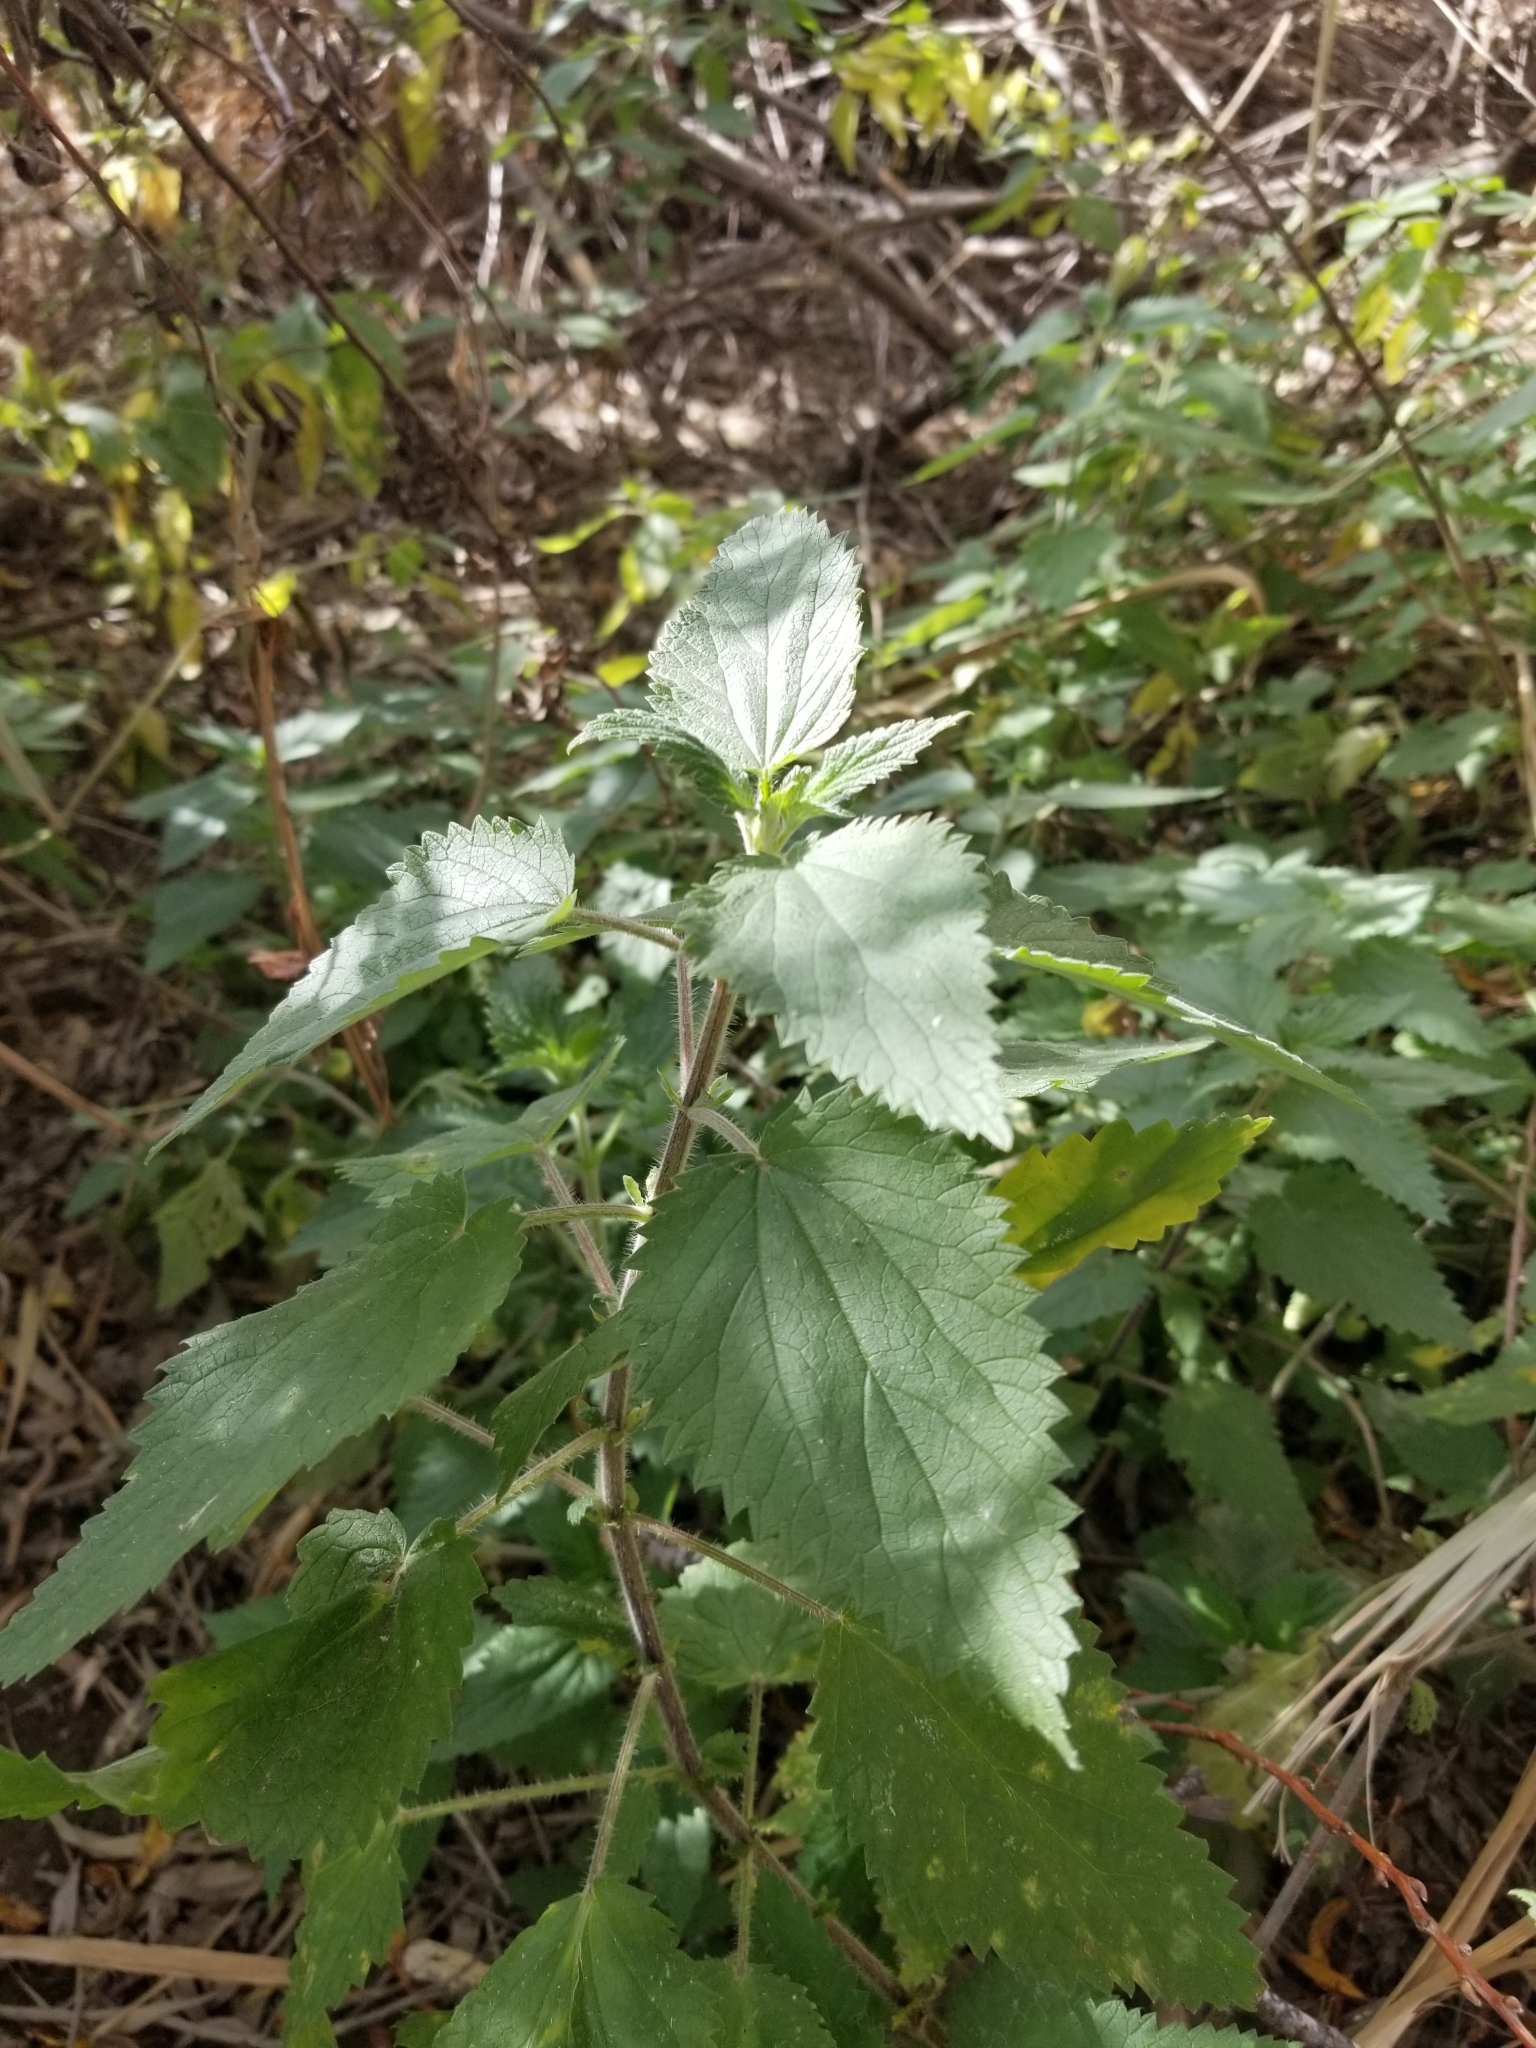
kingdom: Plantae
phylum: Tracheophyta
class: Magnoliopsida
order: Rosales
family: Urticaceae
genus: Urtica
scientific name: Urtica dioica
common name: Common nettle
